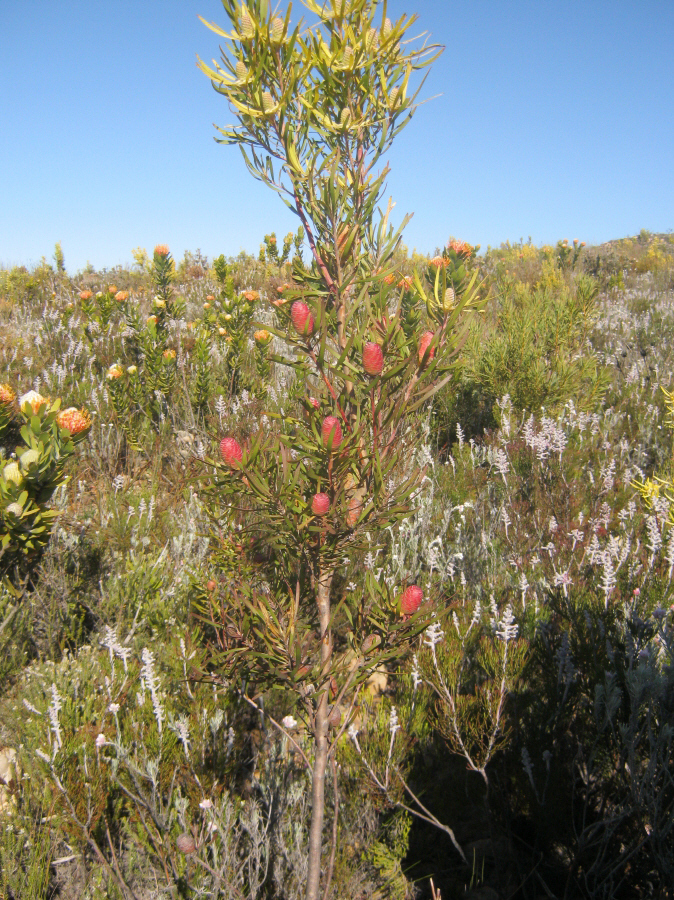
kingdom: Plantae
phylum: Tracheophyta
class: Magnoliopsida
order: Proteales
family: Proteaceae
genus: Leucadendron
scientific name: Leucadendron eucalyptifolium
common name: Gum-leaved conebush
